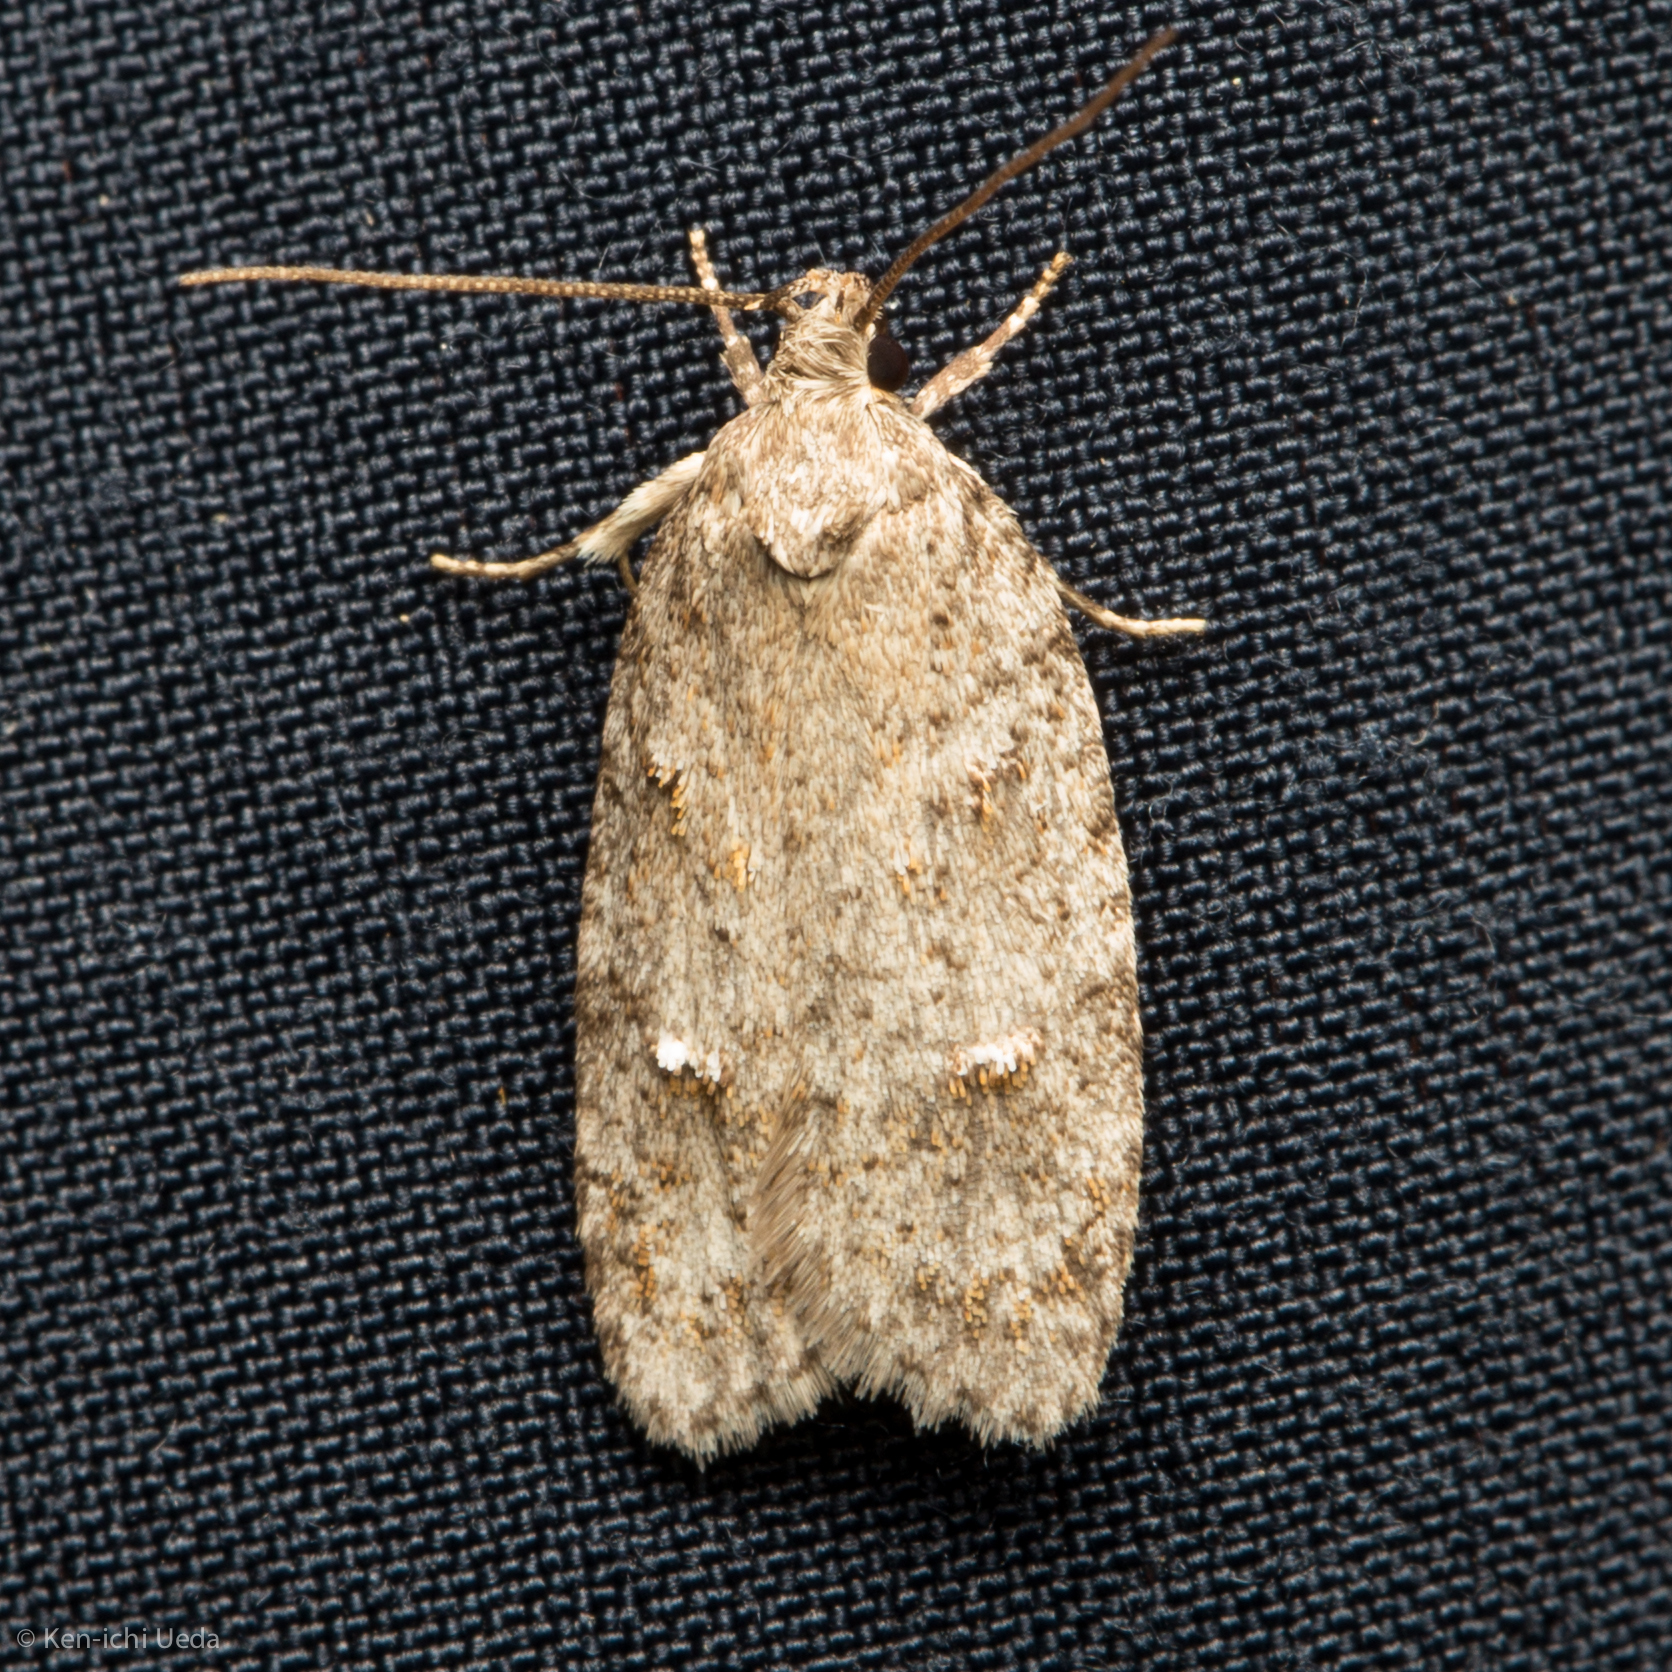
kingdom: Animalia
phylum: Arthropoda
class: Insecta
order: Lepidoptera
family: Depressariidae
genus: Bibarrambla
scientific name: Bibarrambla allenella
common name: Bog bibarrambla moth
